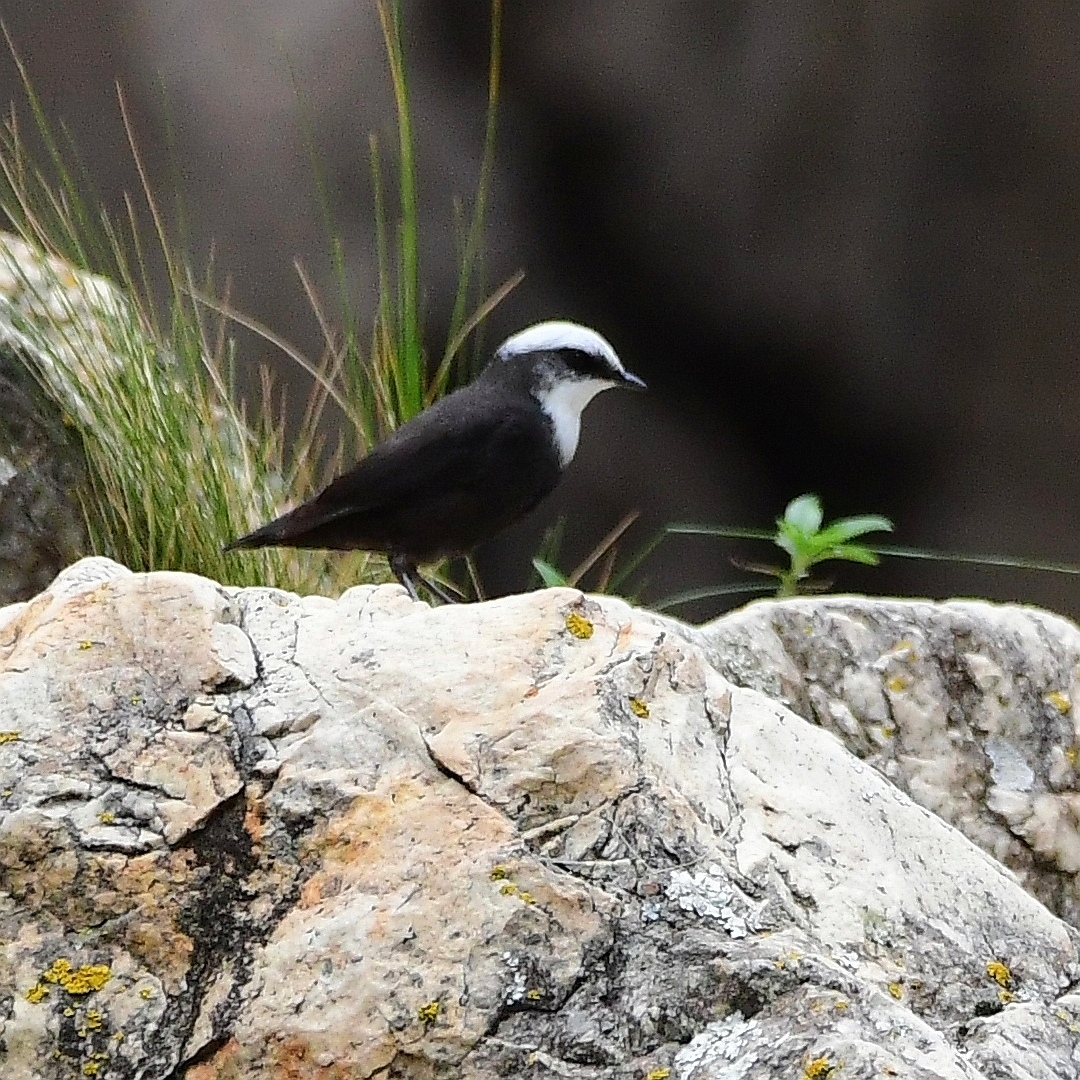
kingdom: Animalia
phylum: Chordata
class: Aves
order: Passeriformes
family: Cinclidae
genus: Cinclus
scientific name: Cinclus leucocephalus
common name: White-capped dipper
